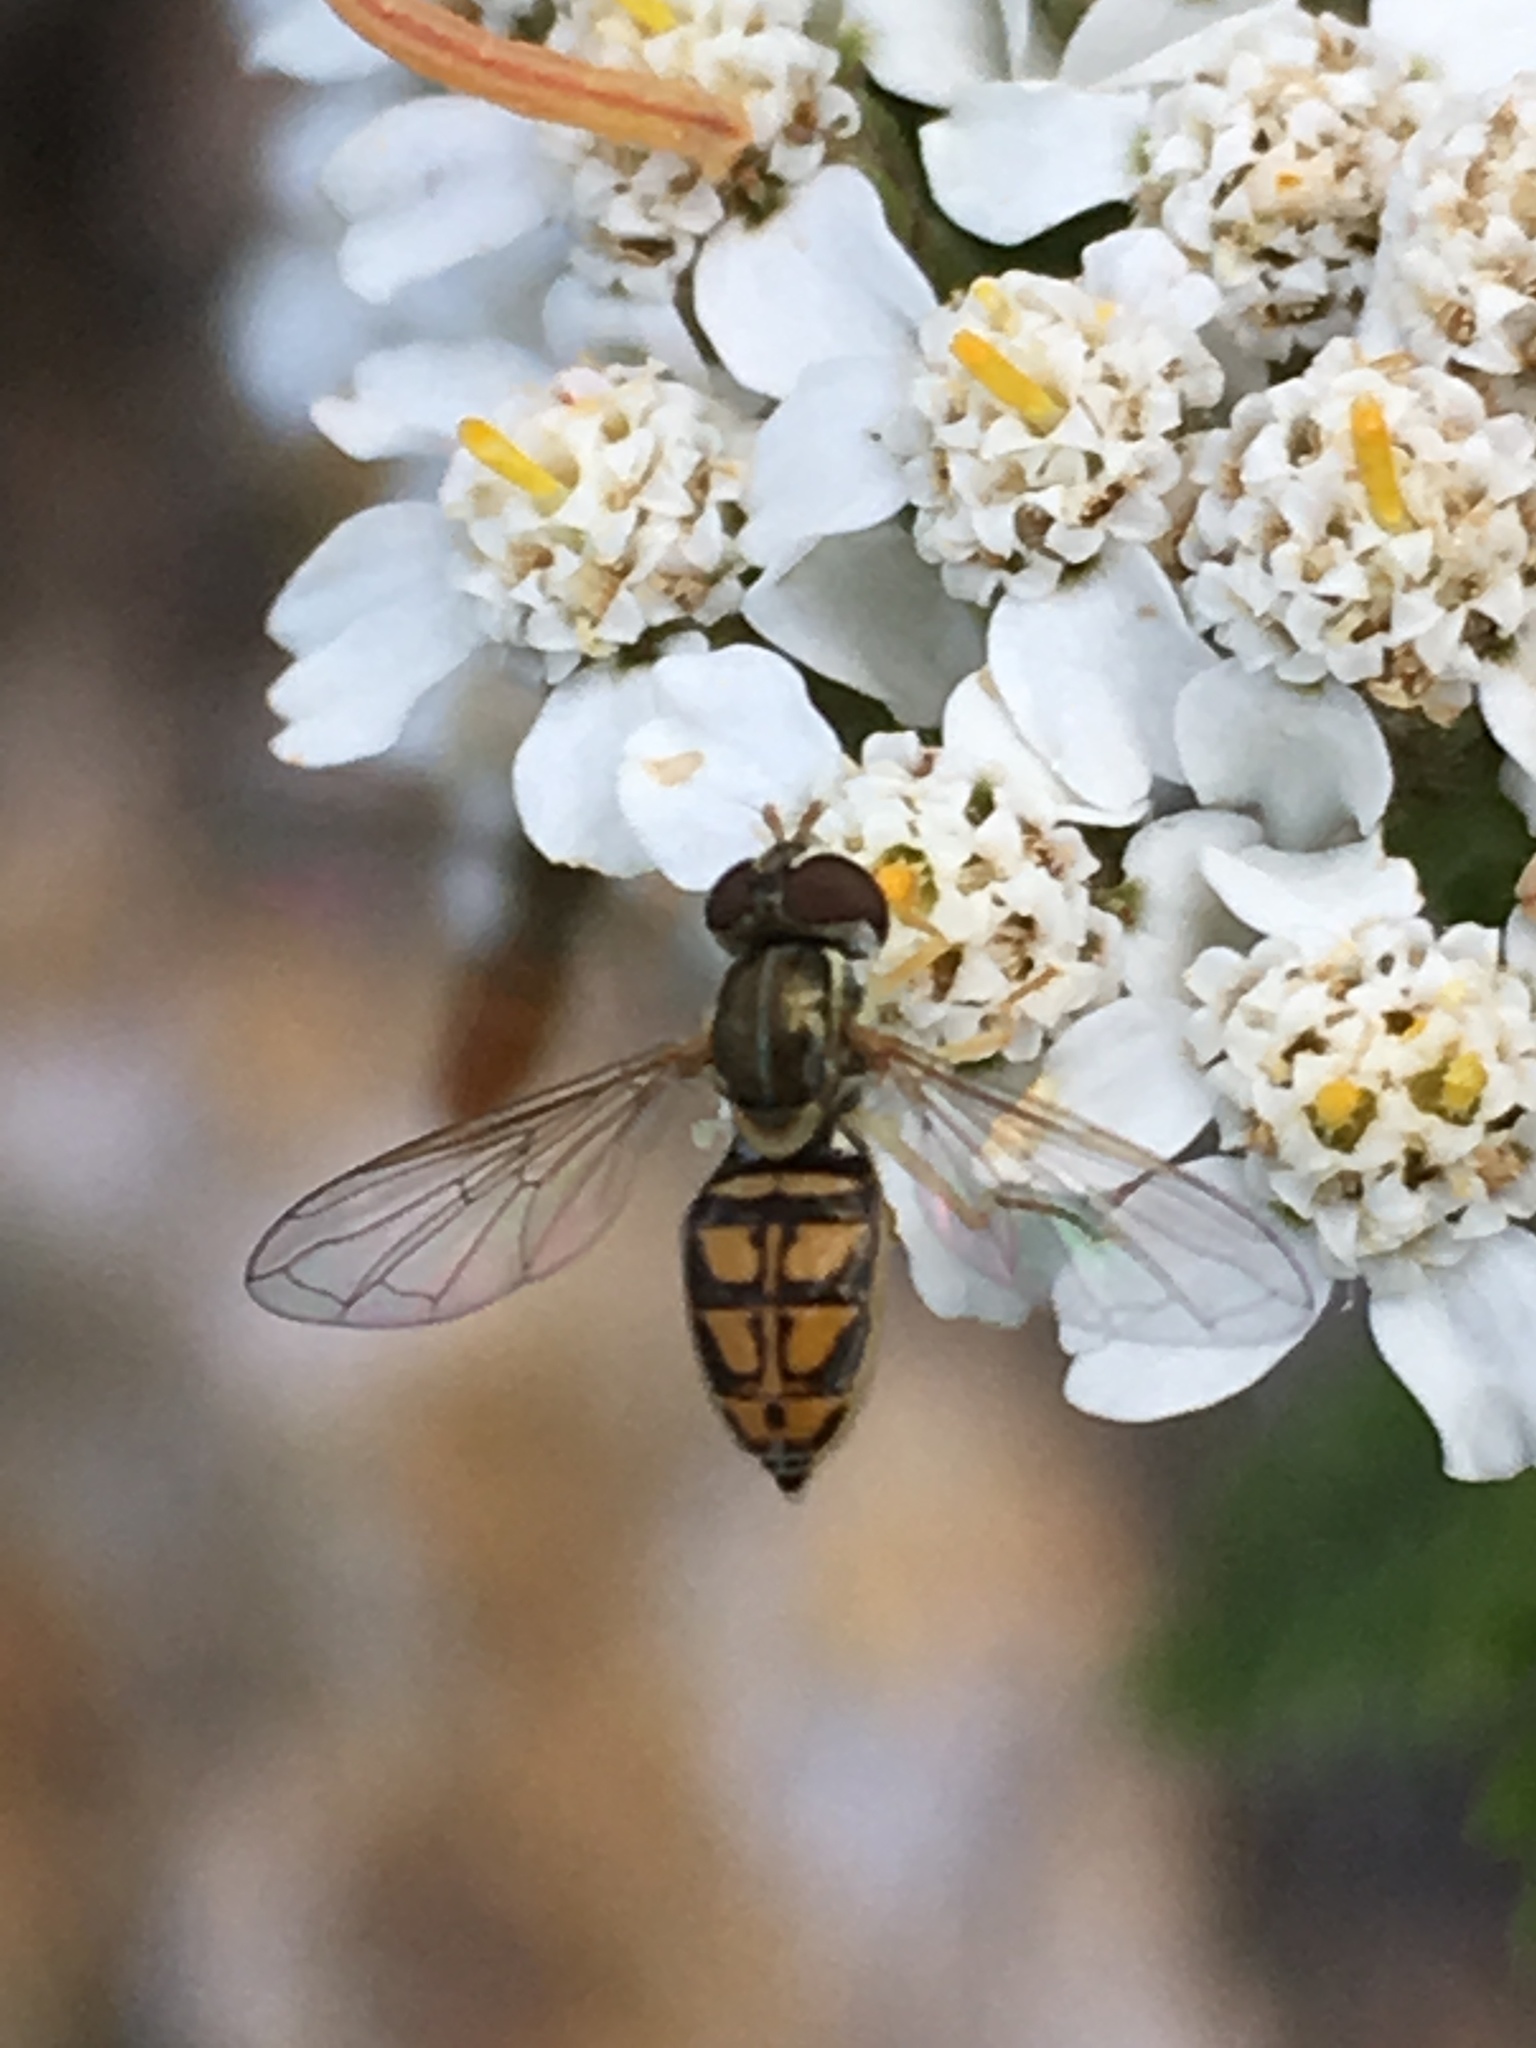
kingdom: Animalia
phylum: Arthropoda
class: Insecta
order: Diptera
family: Syrphidae
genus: Toxomerus
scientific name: Toxomerus marginatus
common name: Syrphid fly
